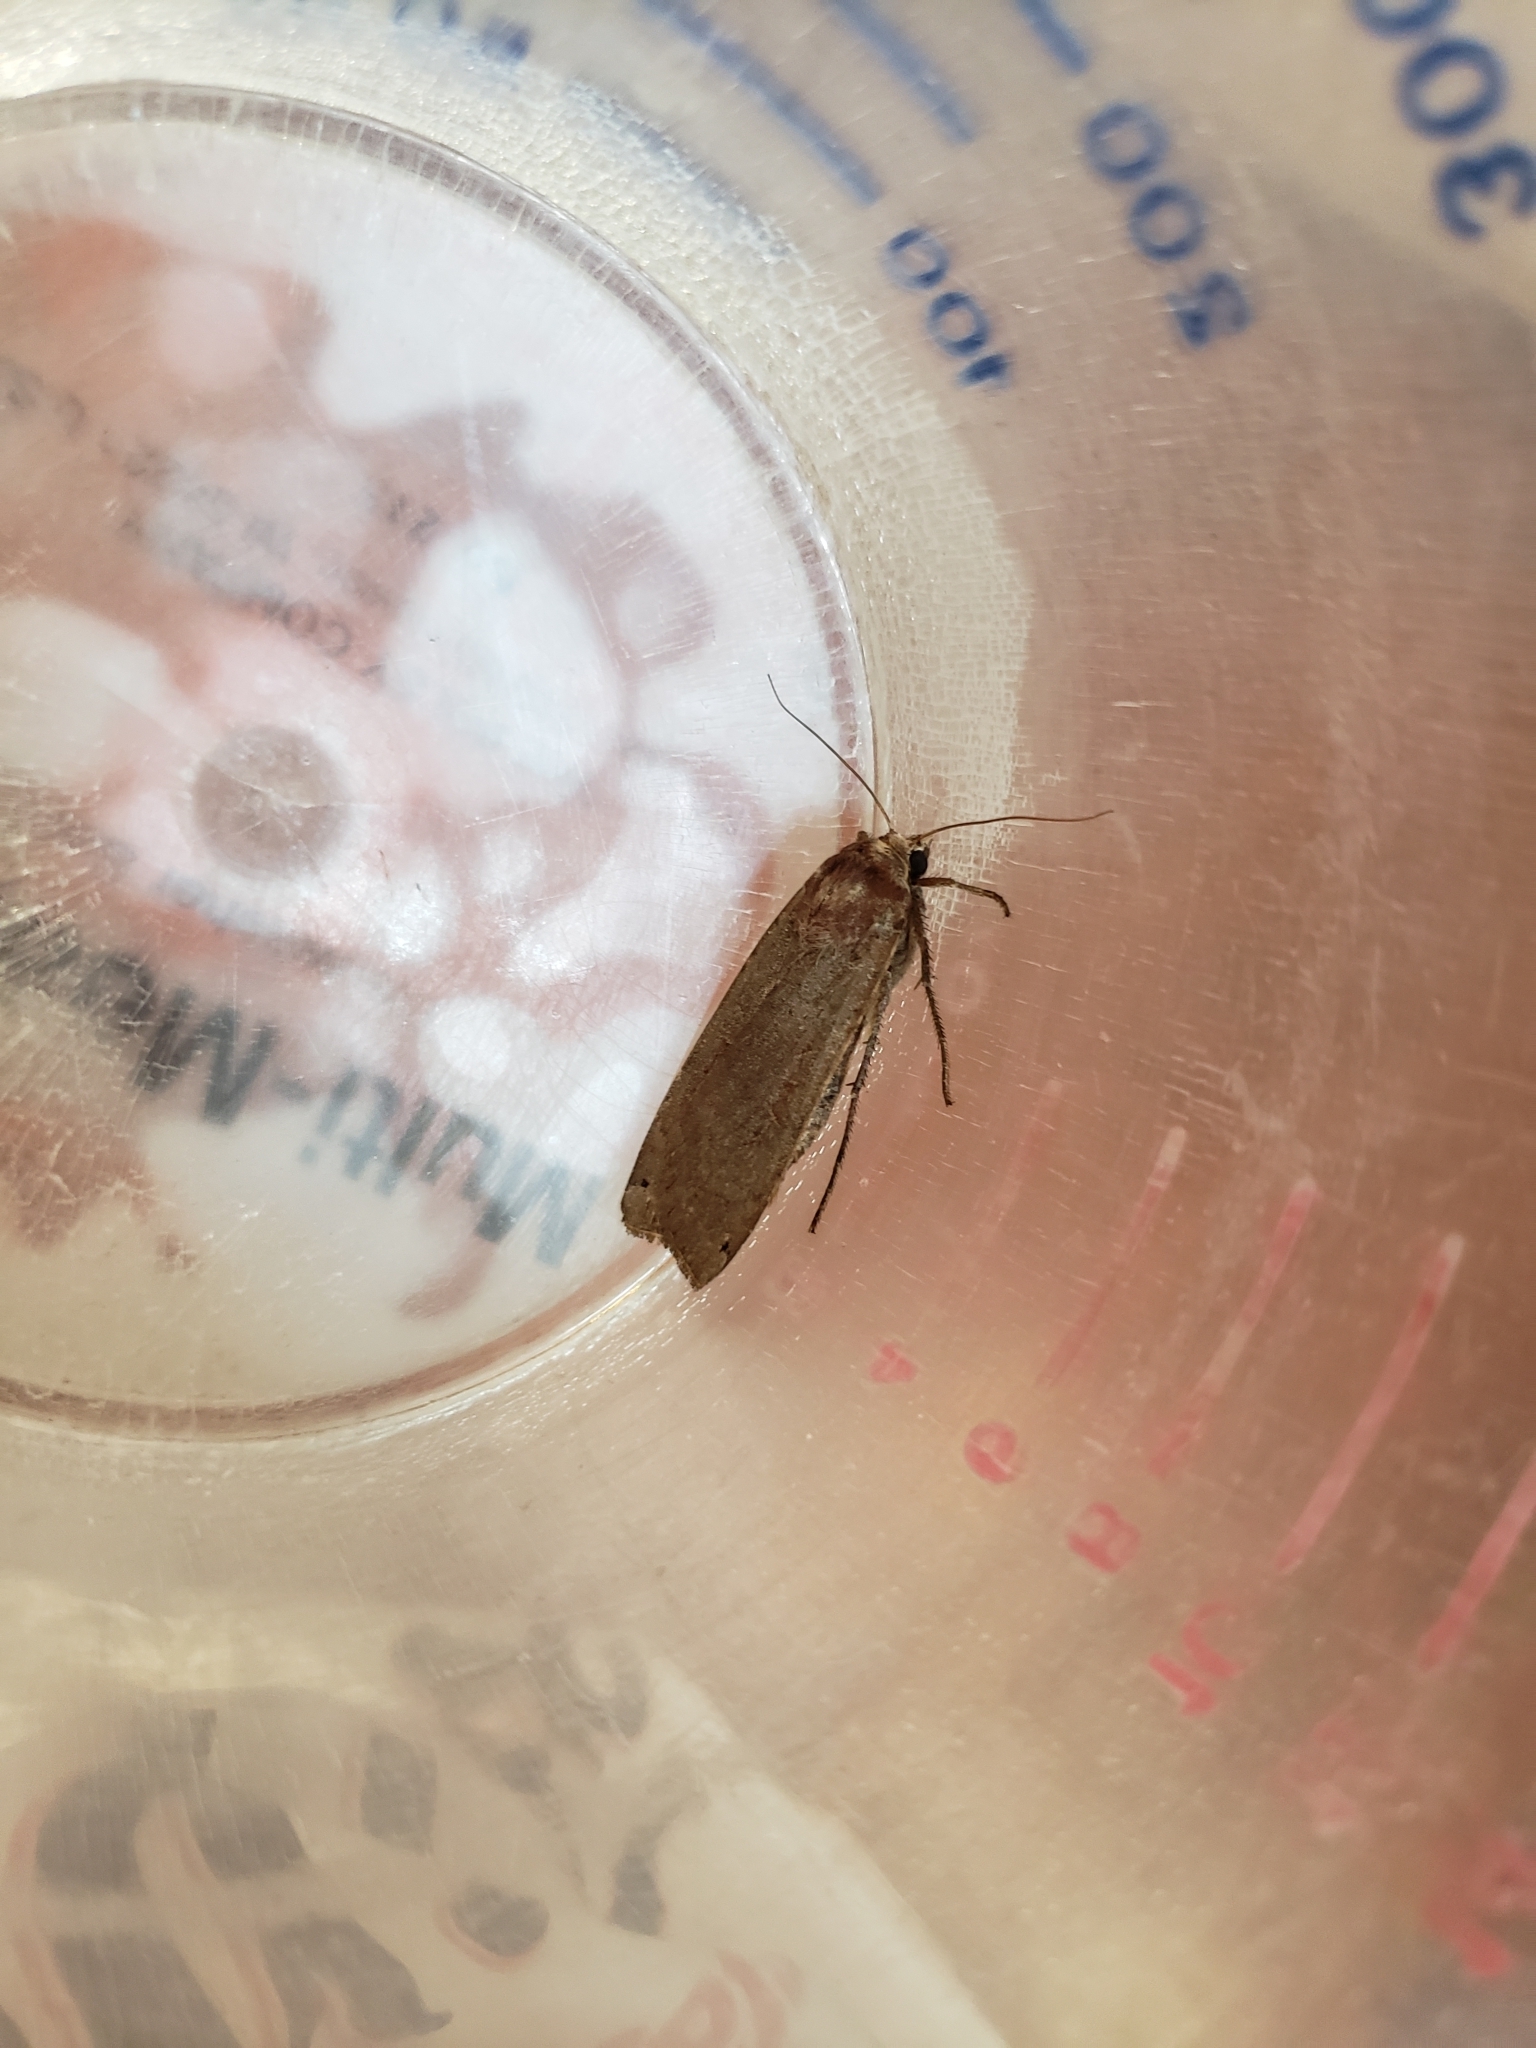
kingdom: Animalia
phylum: Arthropoda
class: Insecta
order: Lepidoptera
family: Noctuidae
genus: Noctua
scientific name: Noctua pronuba
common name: Large yellow underwing
